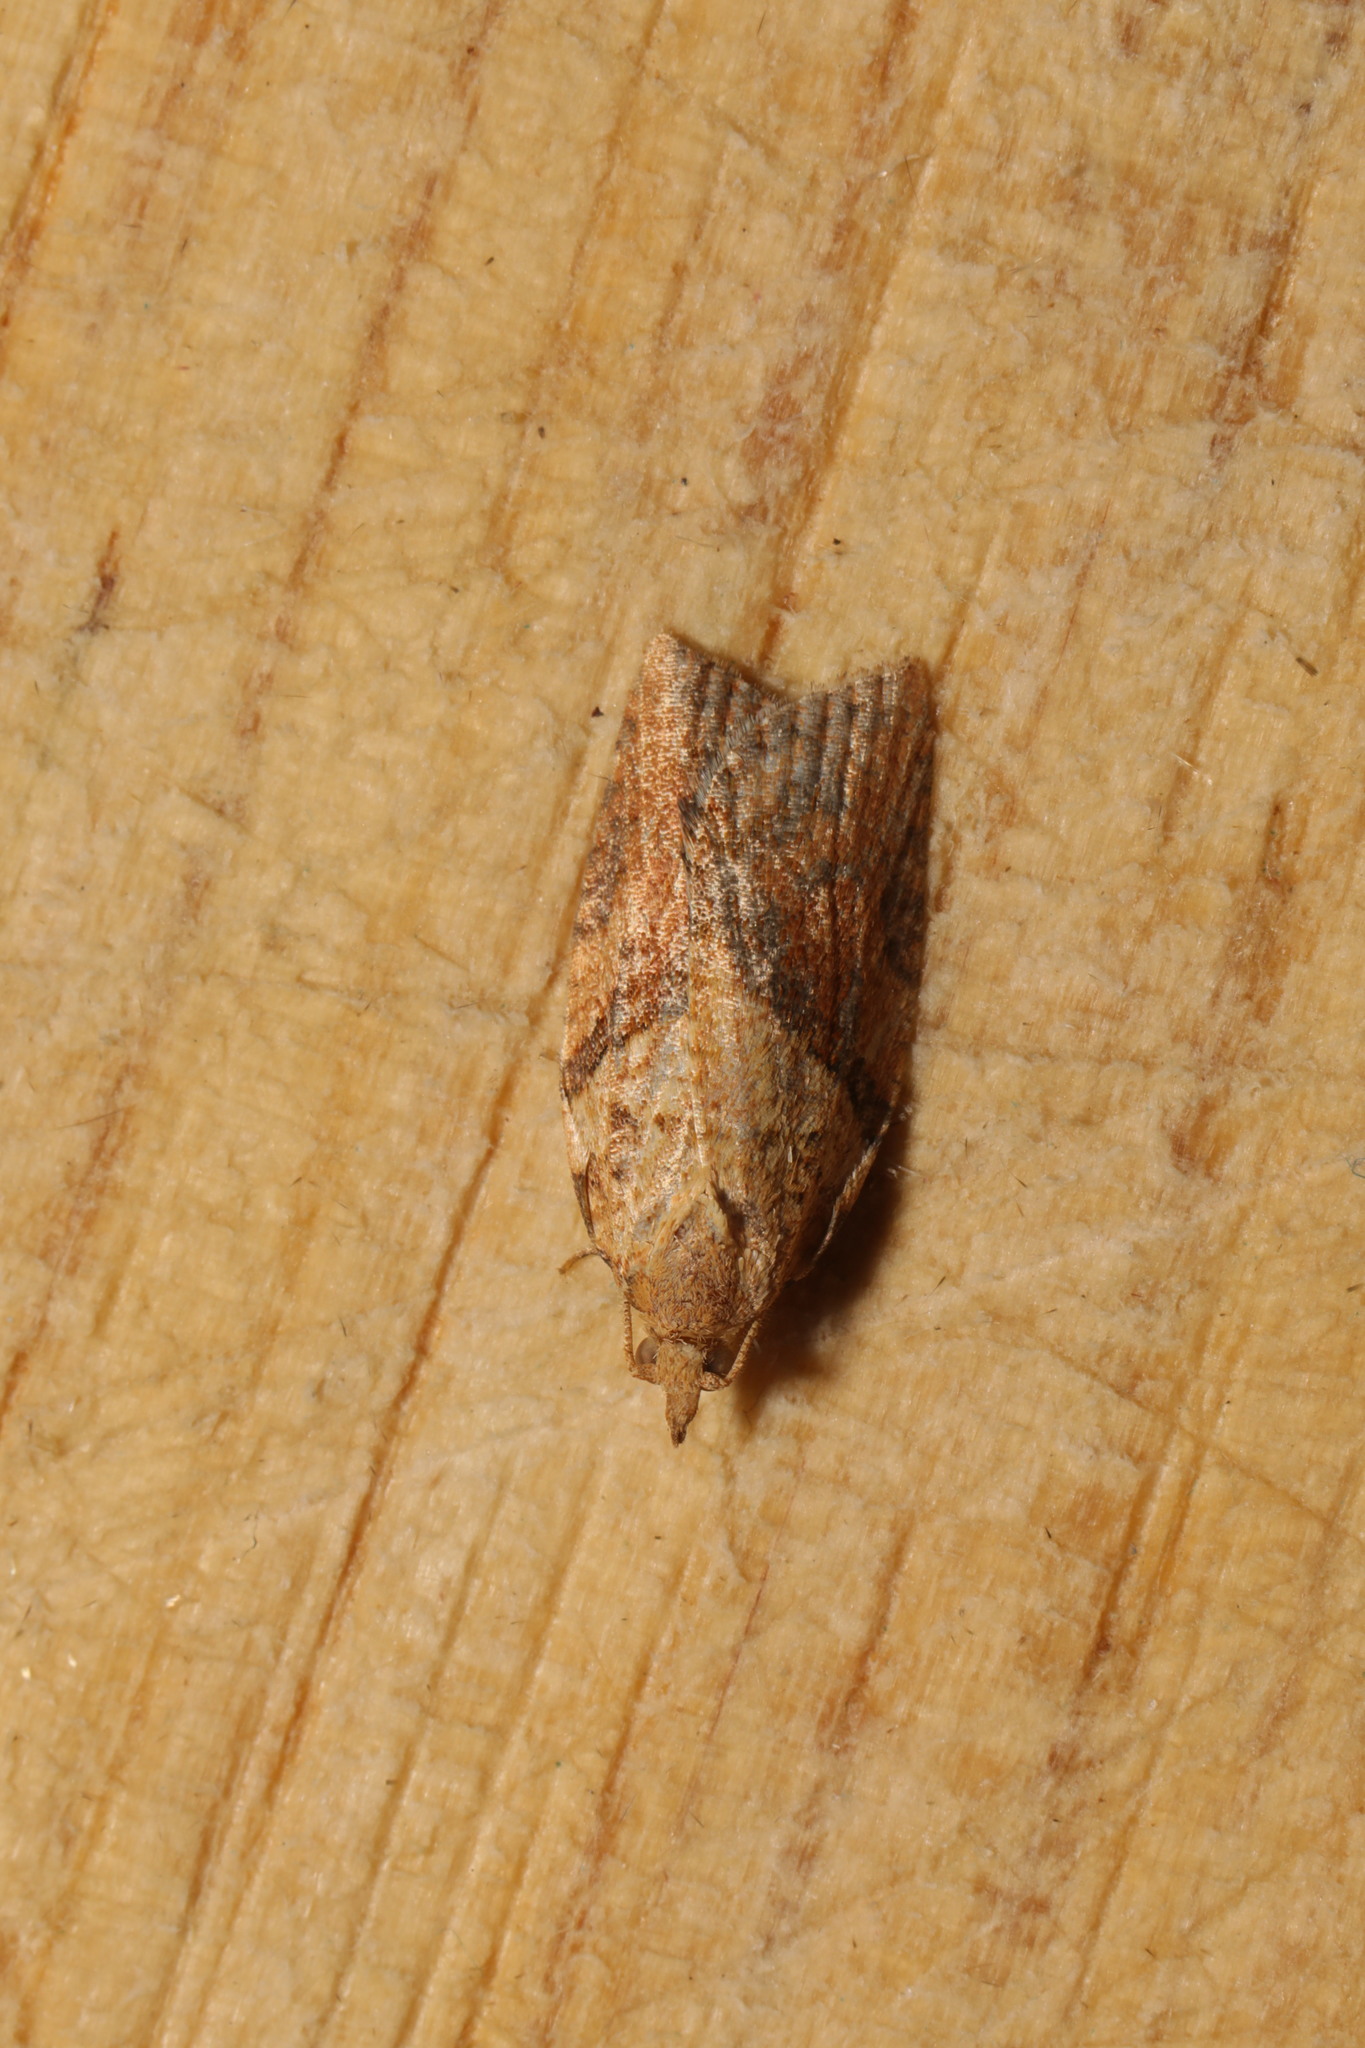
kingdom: Animalia
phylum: Arthropoda
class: Insecta
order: Lepidoptera
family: Tortricidae
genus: Epiphyas
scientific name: Epiphyas postvittana
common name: Light brown apple moth
